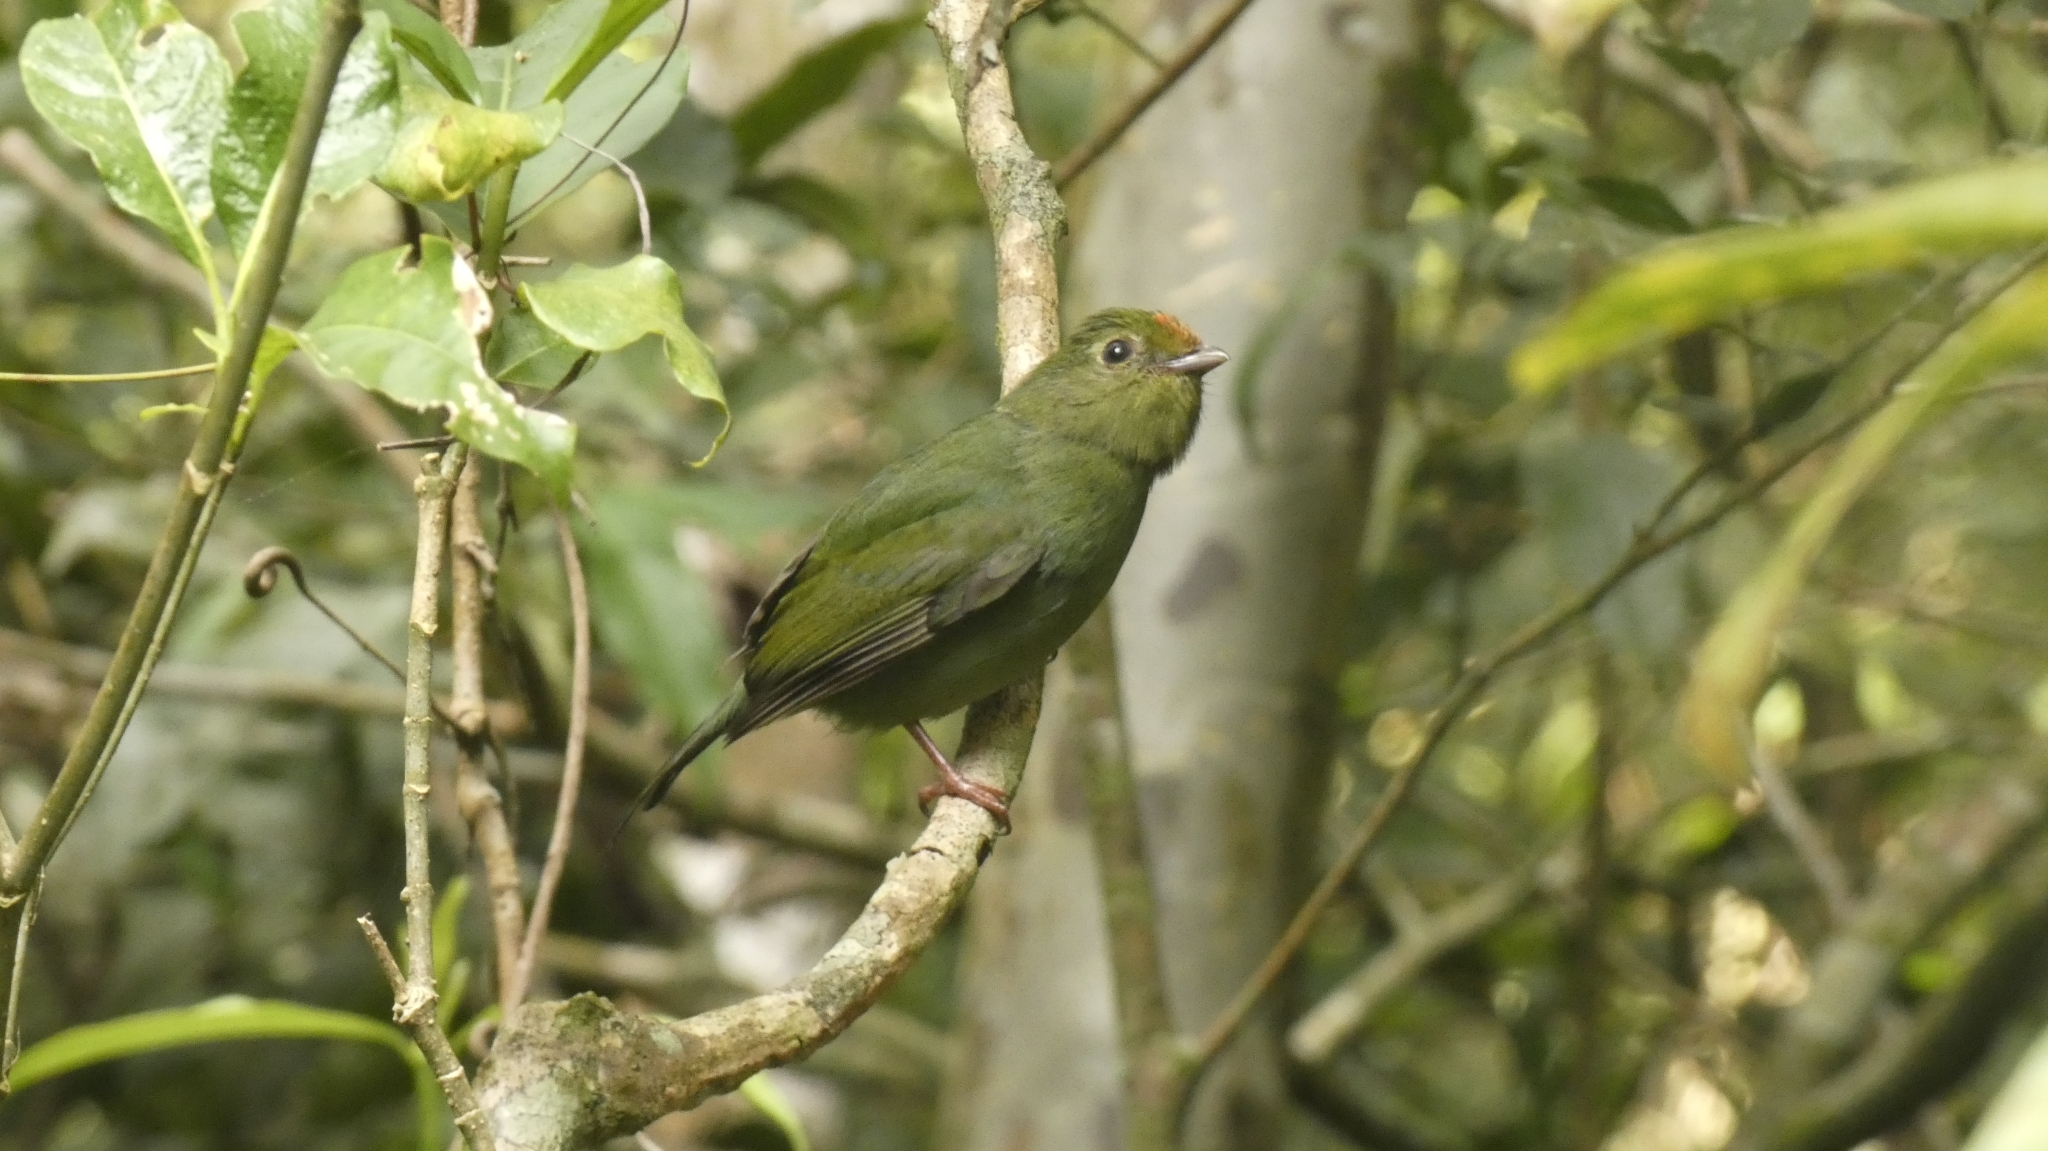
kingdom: Animalia
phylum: Chordata
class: Aves
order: Passeriformes
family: Pipridae
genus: Chiroxiphia
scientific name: Chiroxiphia caudata
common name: Blue manakin
